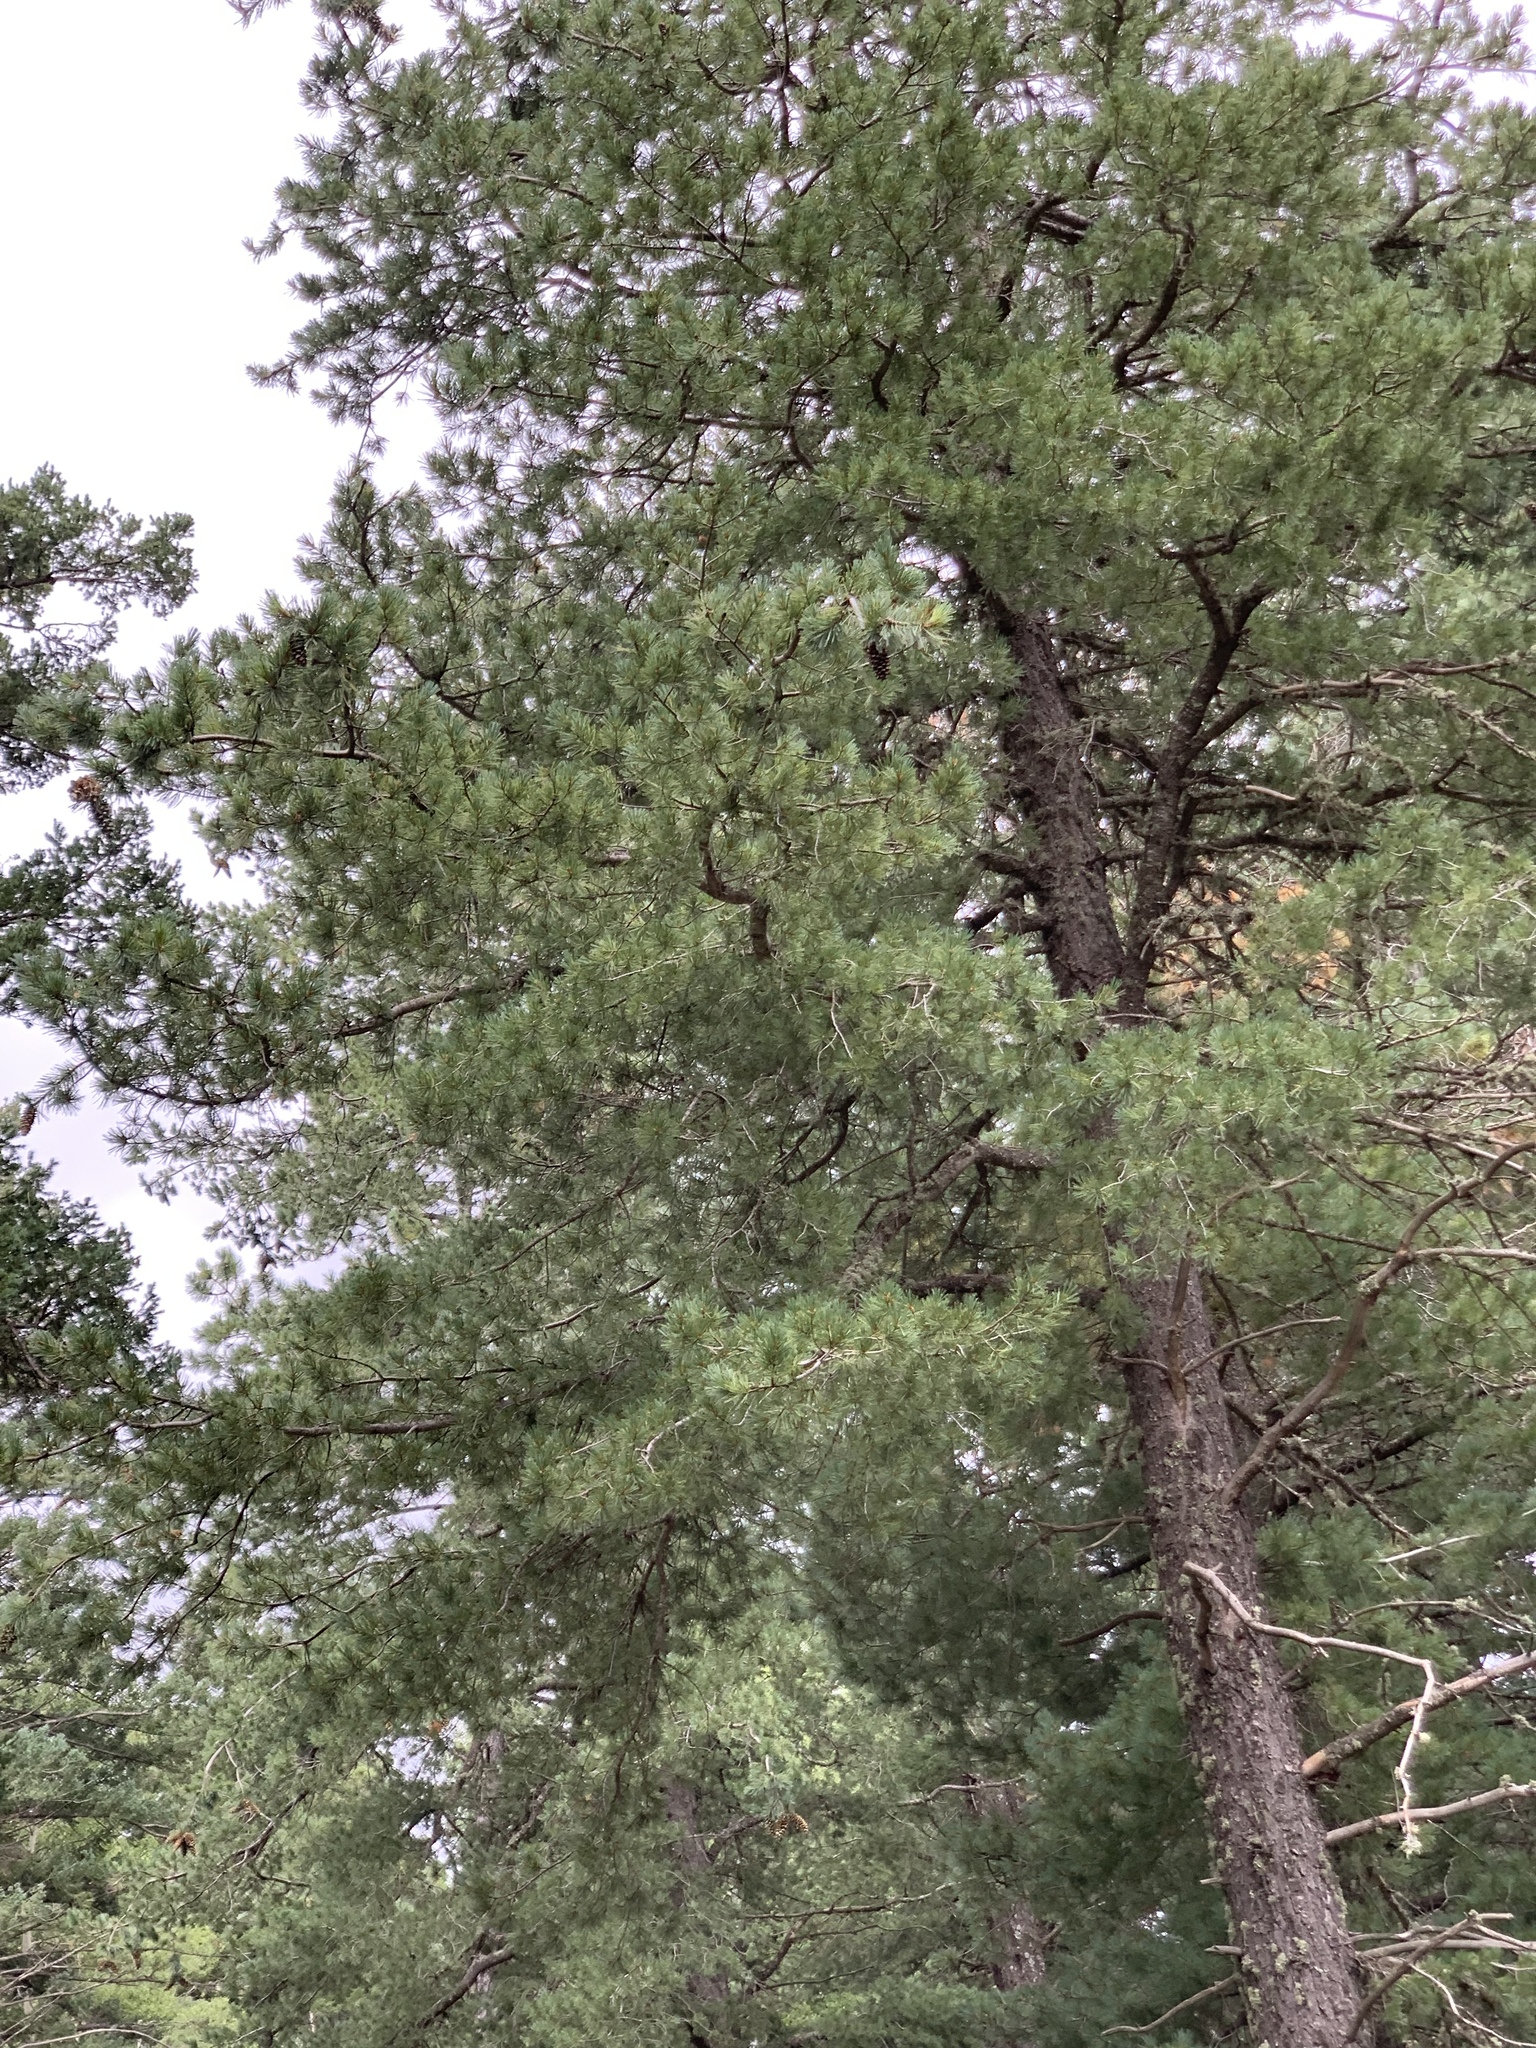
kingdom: Plantae
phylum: Tracheophyta
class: Pinopsida
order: Pinales
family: Pinaceae
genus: Pinus
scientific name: Pinus strobiformis
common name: Southwestern white pine
